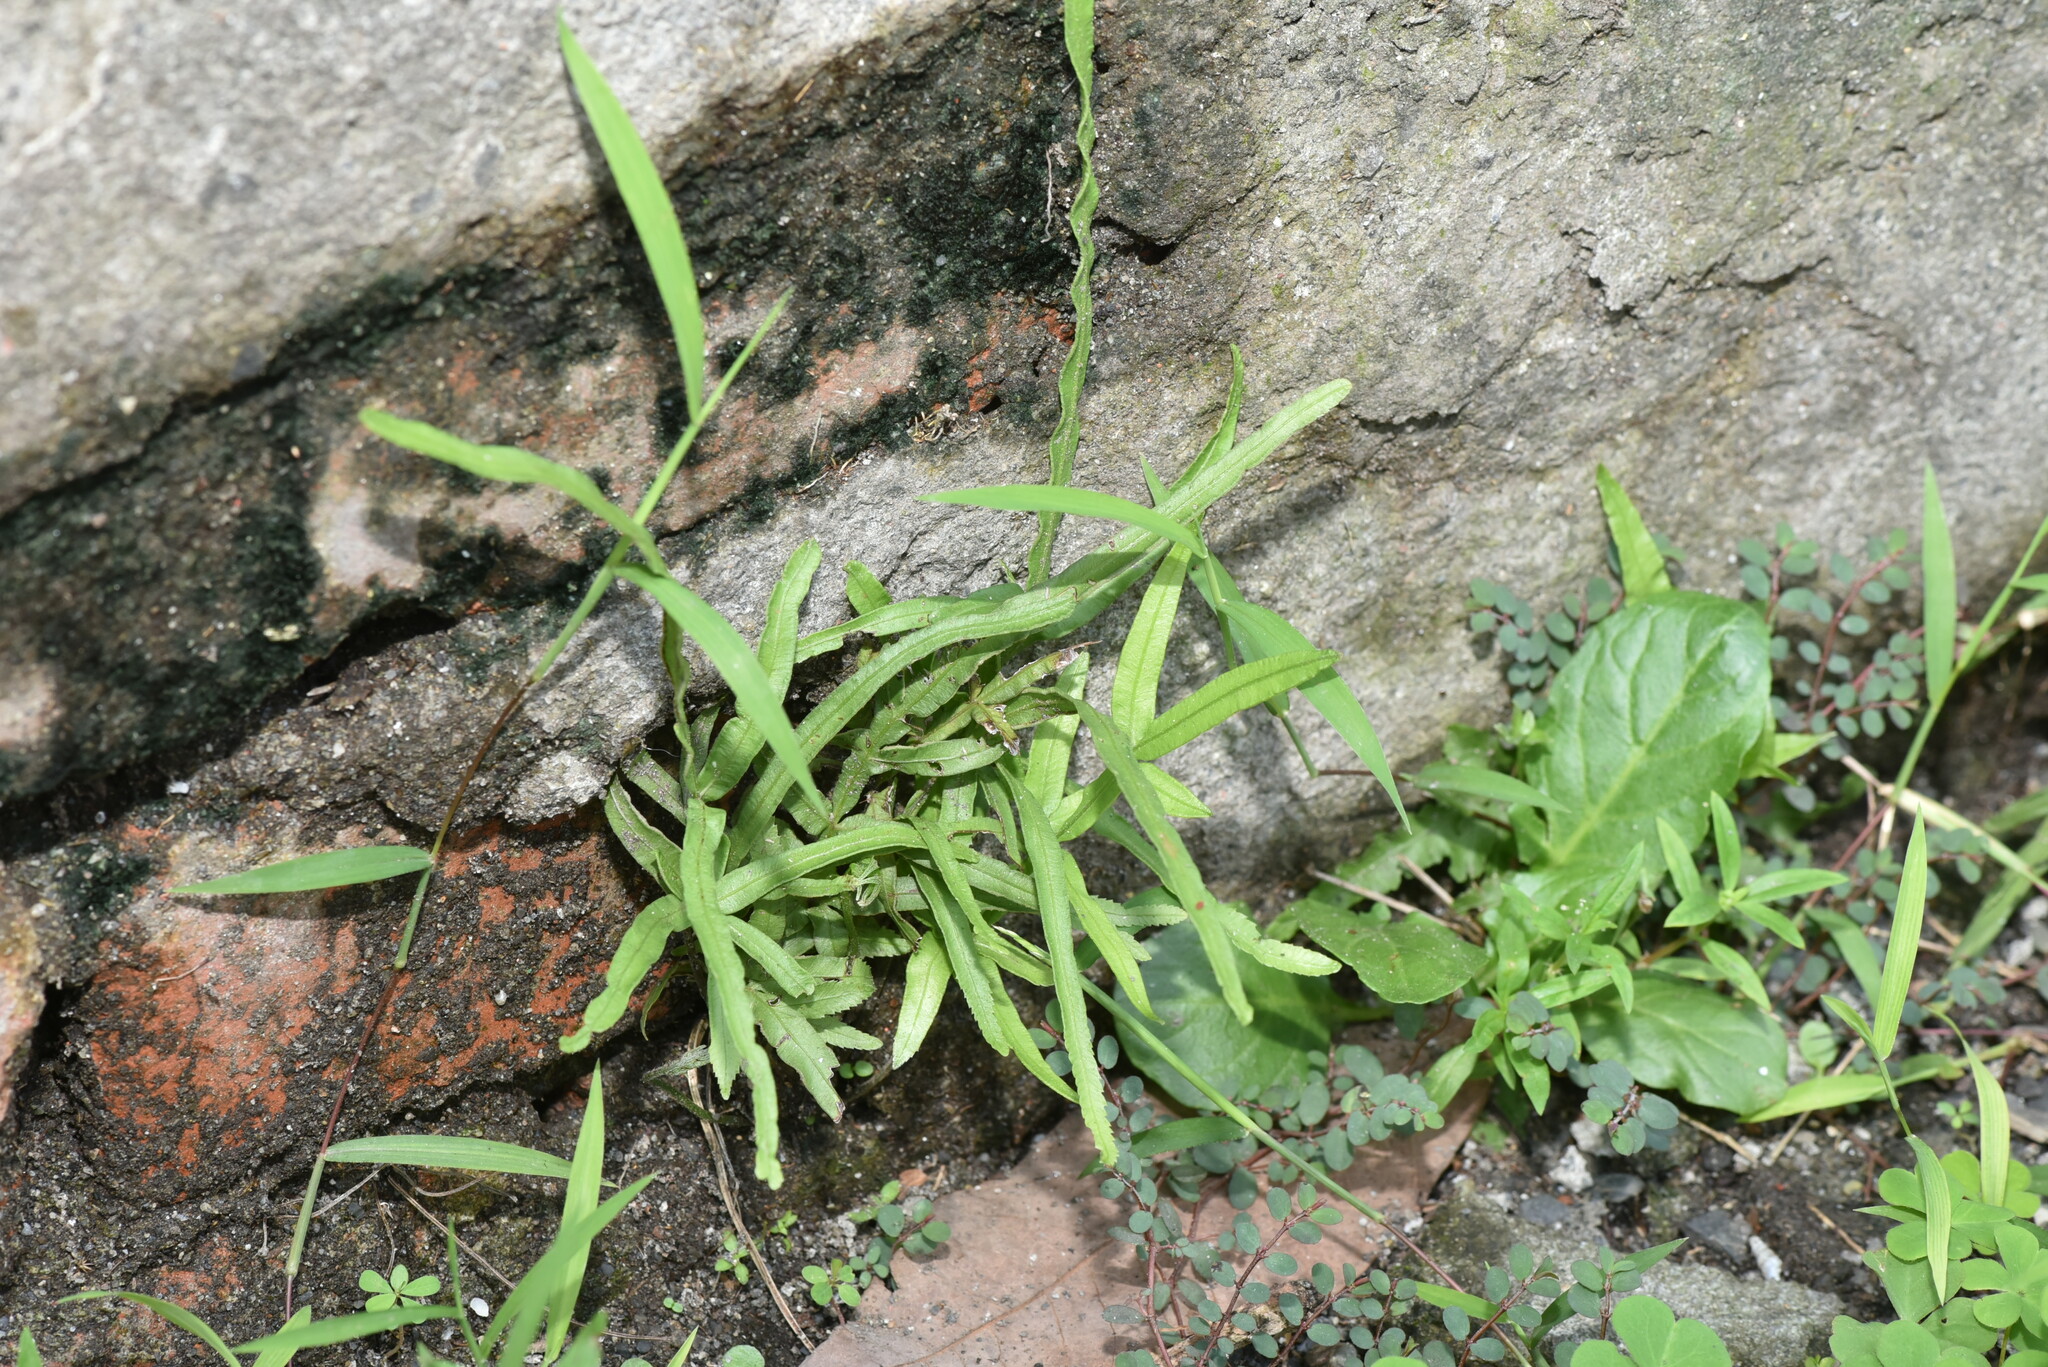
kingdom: Plantae
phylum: Tracheophyta
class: Polypodiopsida
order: Polypodiales
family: Pteridaceae
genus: Pteris
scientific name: Pteris multifida
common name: Spider brake
